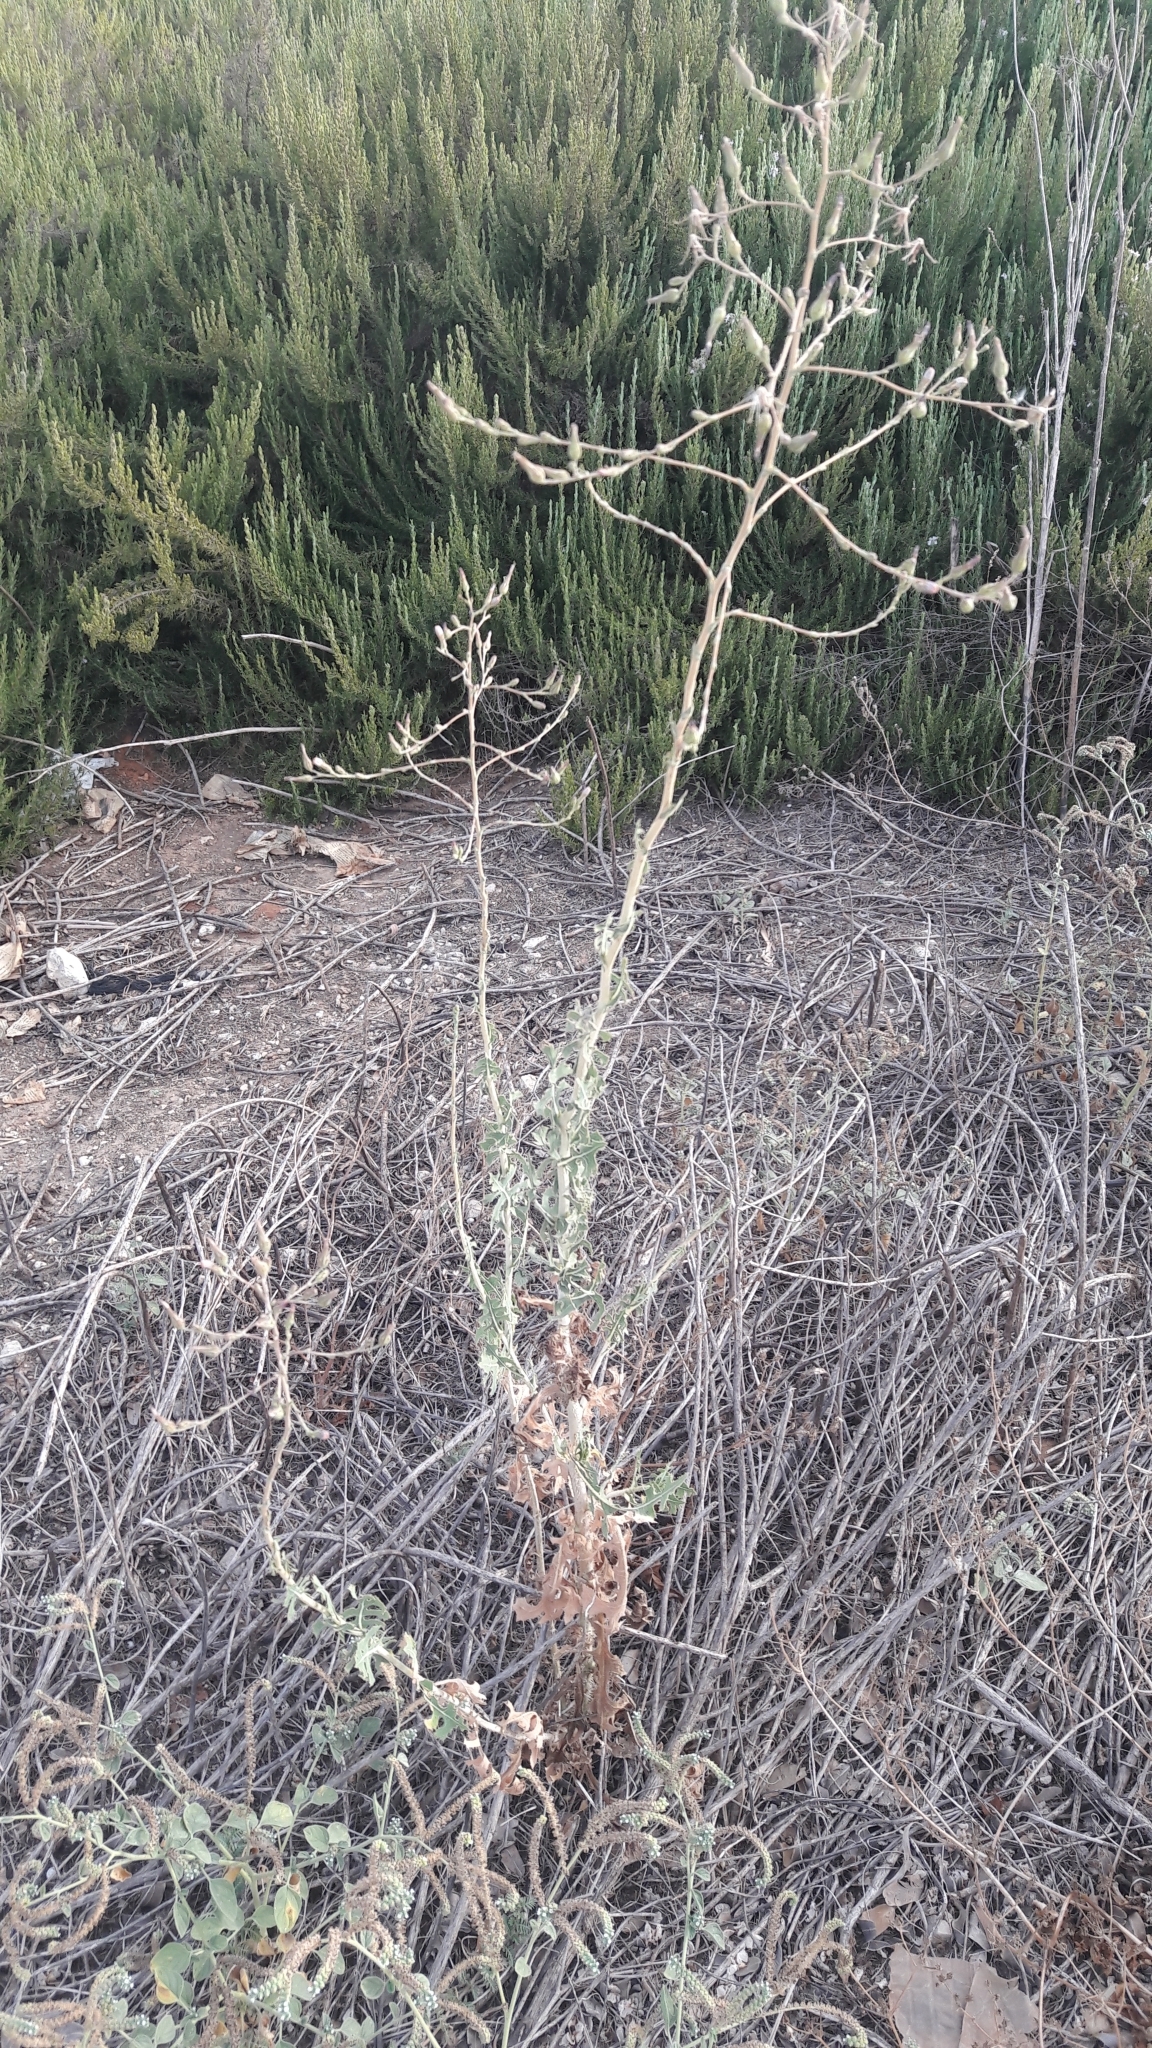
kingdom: Plantae
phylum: Tracheophyta
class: Magnoliopsida
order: Asterales
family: Asteraceae
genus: Lactuca
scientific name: Lactuca serriola
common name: Prickly lettuce
